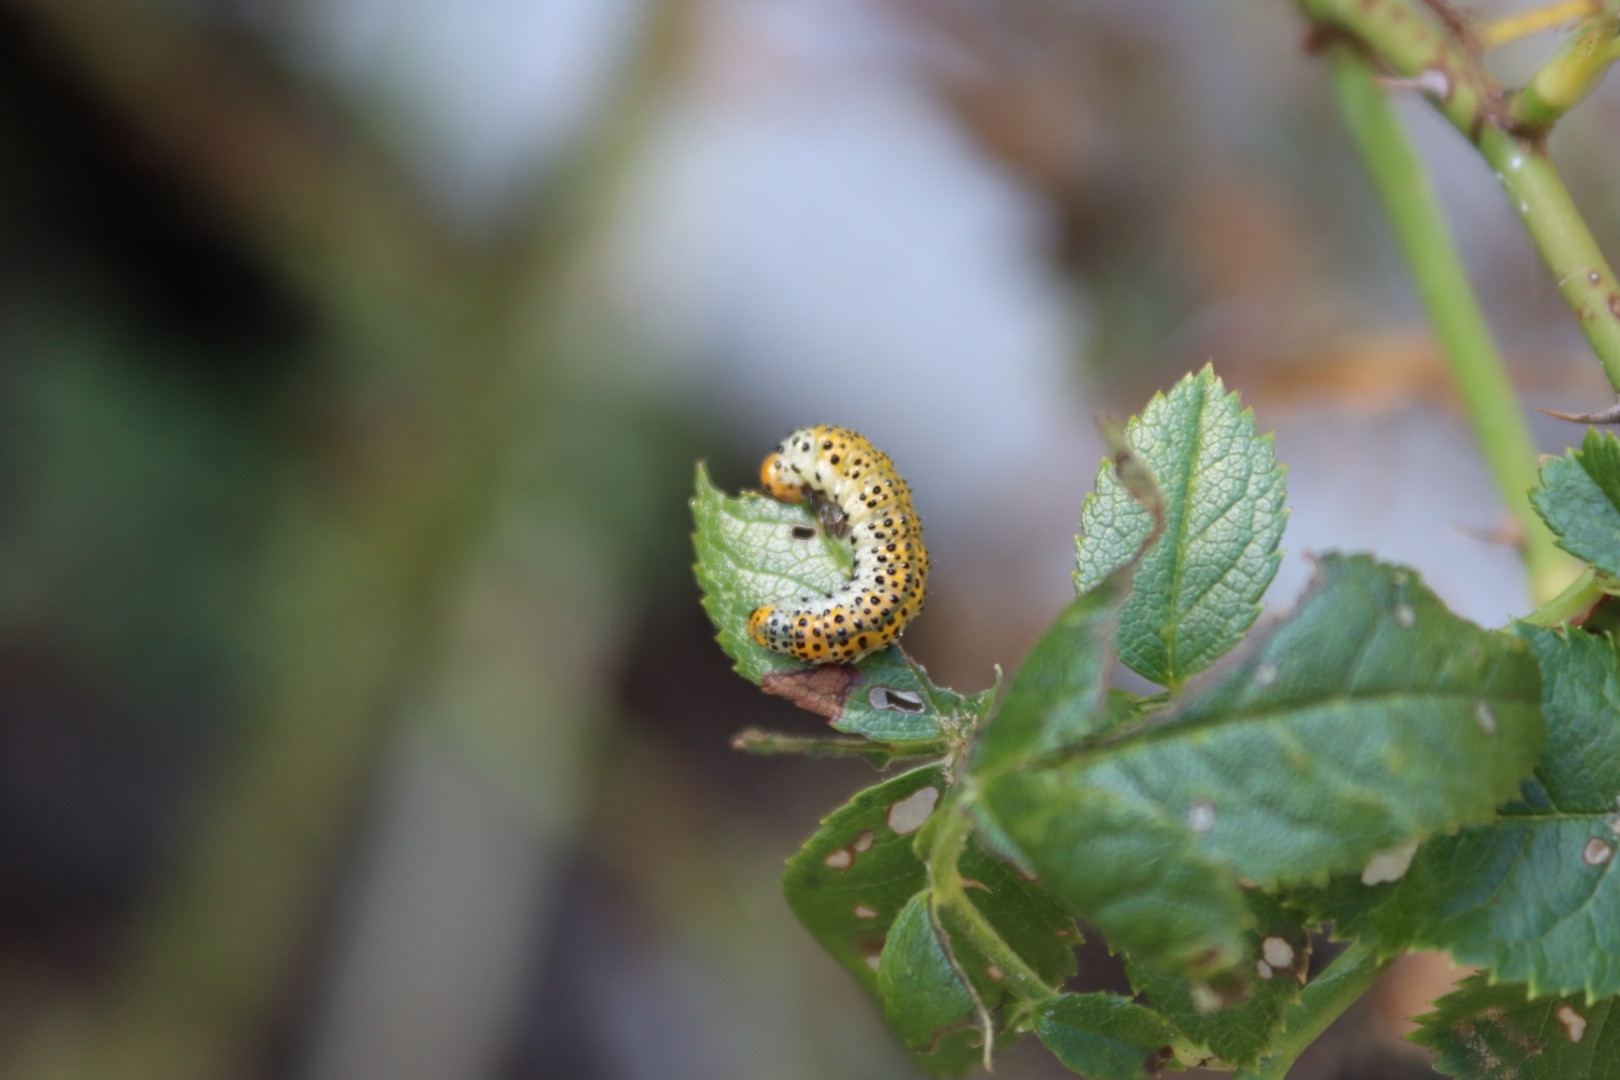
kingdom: Animalia
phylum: Arthropoda
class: Insecta
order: Hymenoptera
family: Argidae
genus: Arge
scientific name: Arge ochropus
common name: Argid sawfly
